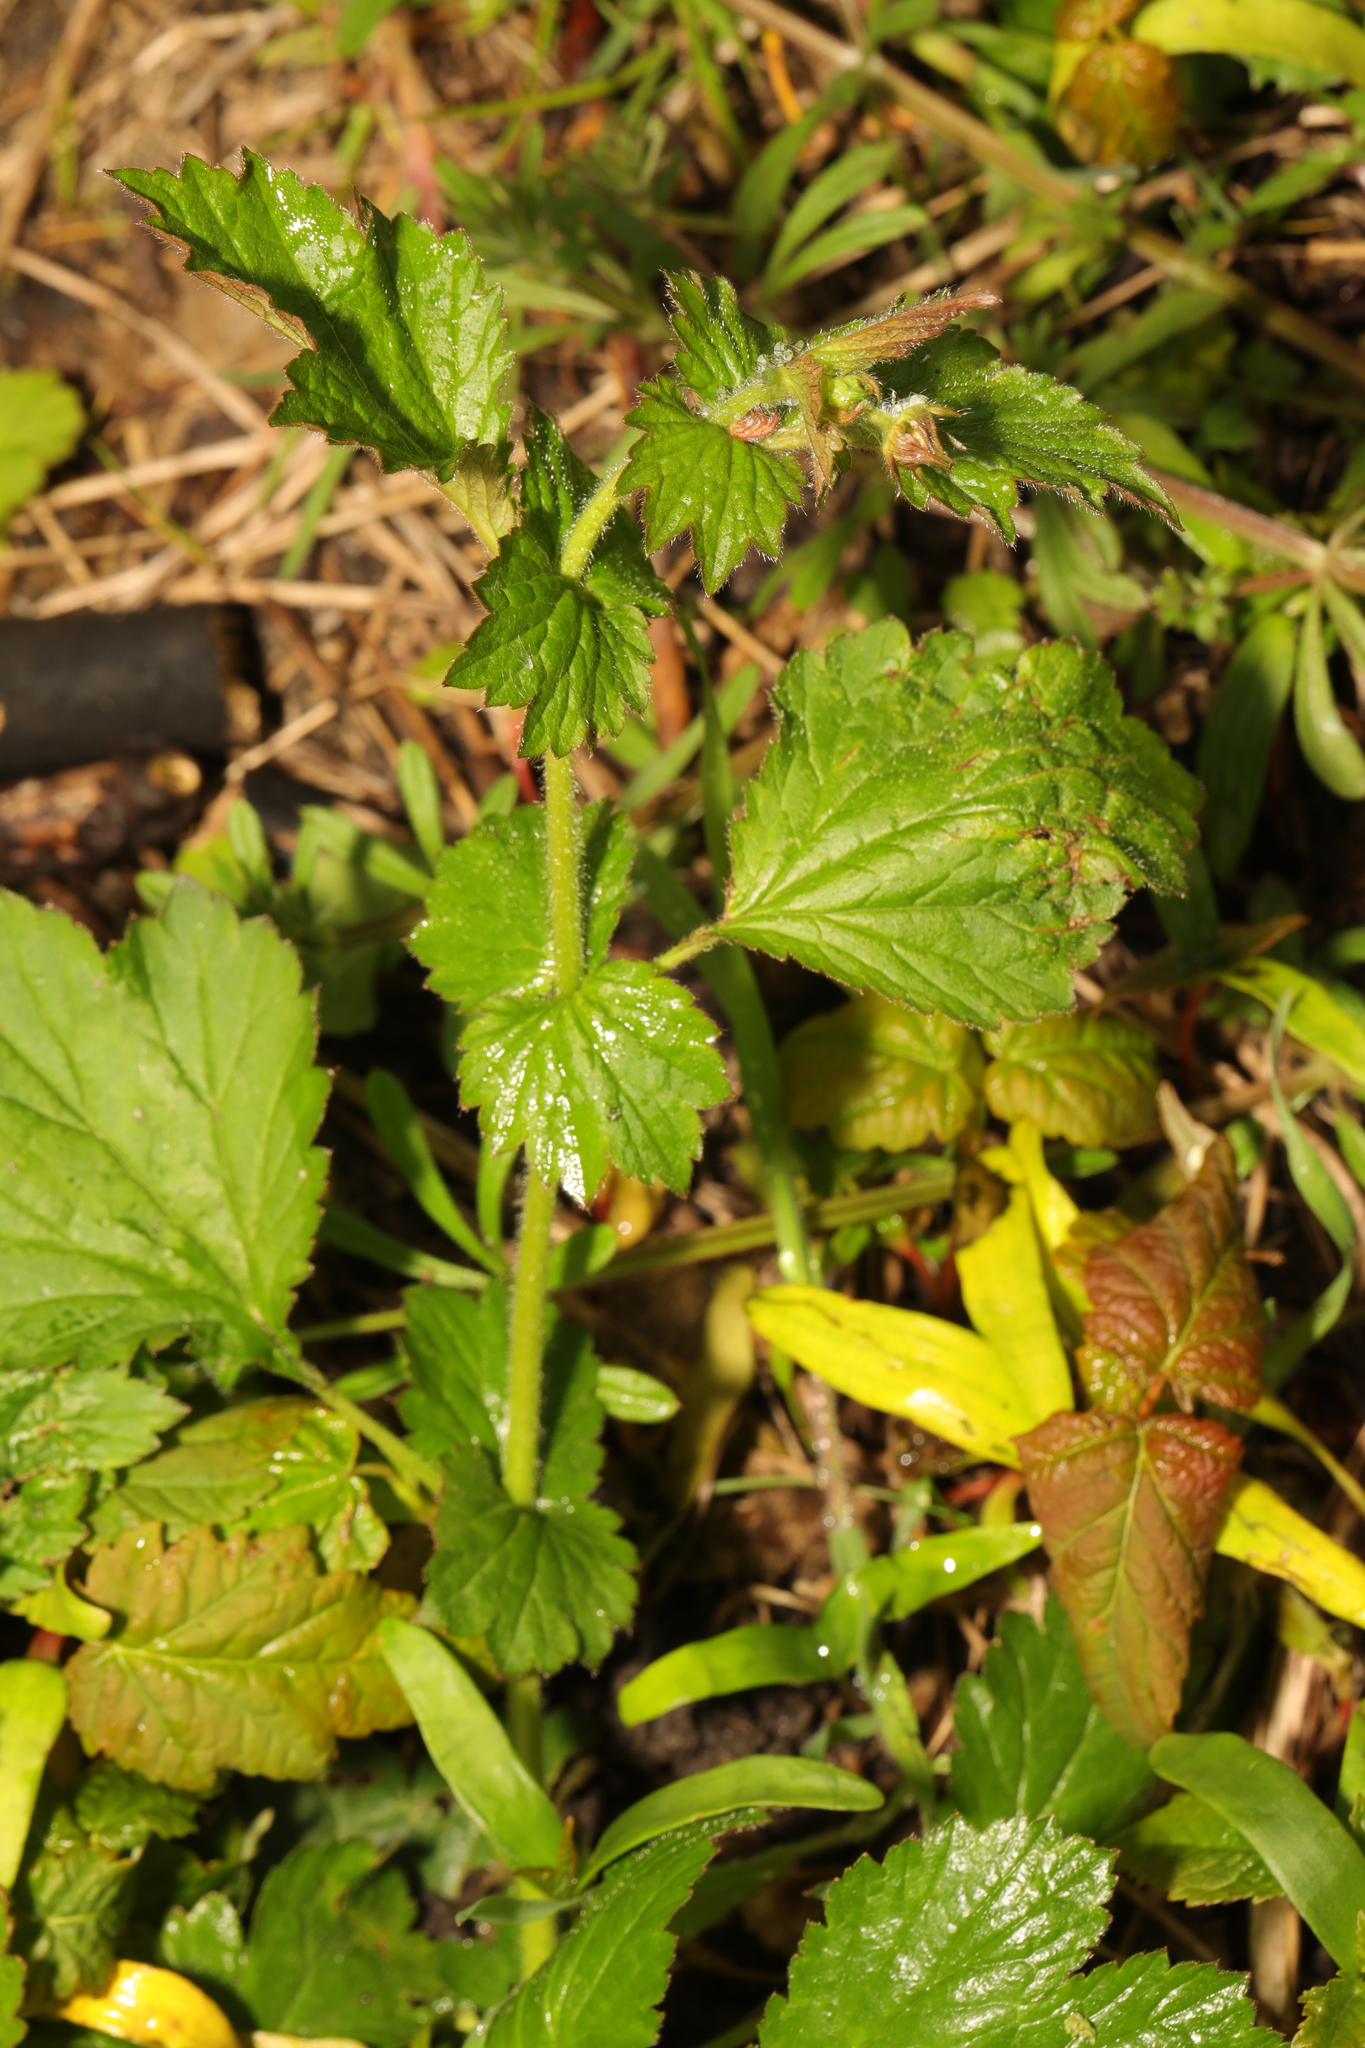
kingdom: Plantae
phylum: Tracheophyta
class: Magnoliopsida
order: Rosales
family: Rosaceae
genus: Geum
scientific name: Geum urbanum
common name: Wood avens
